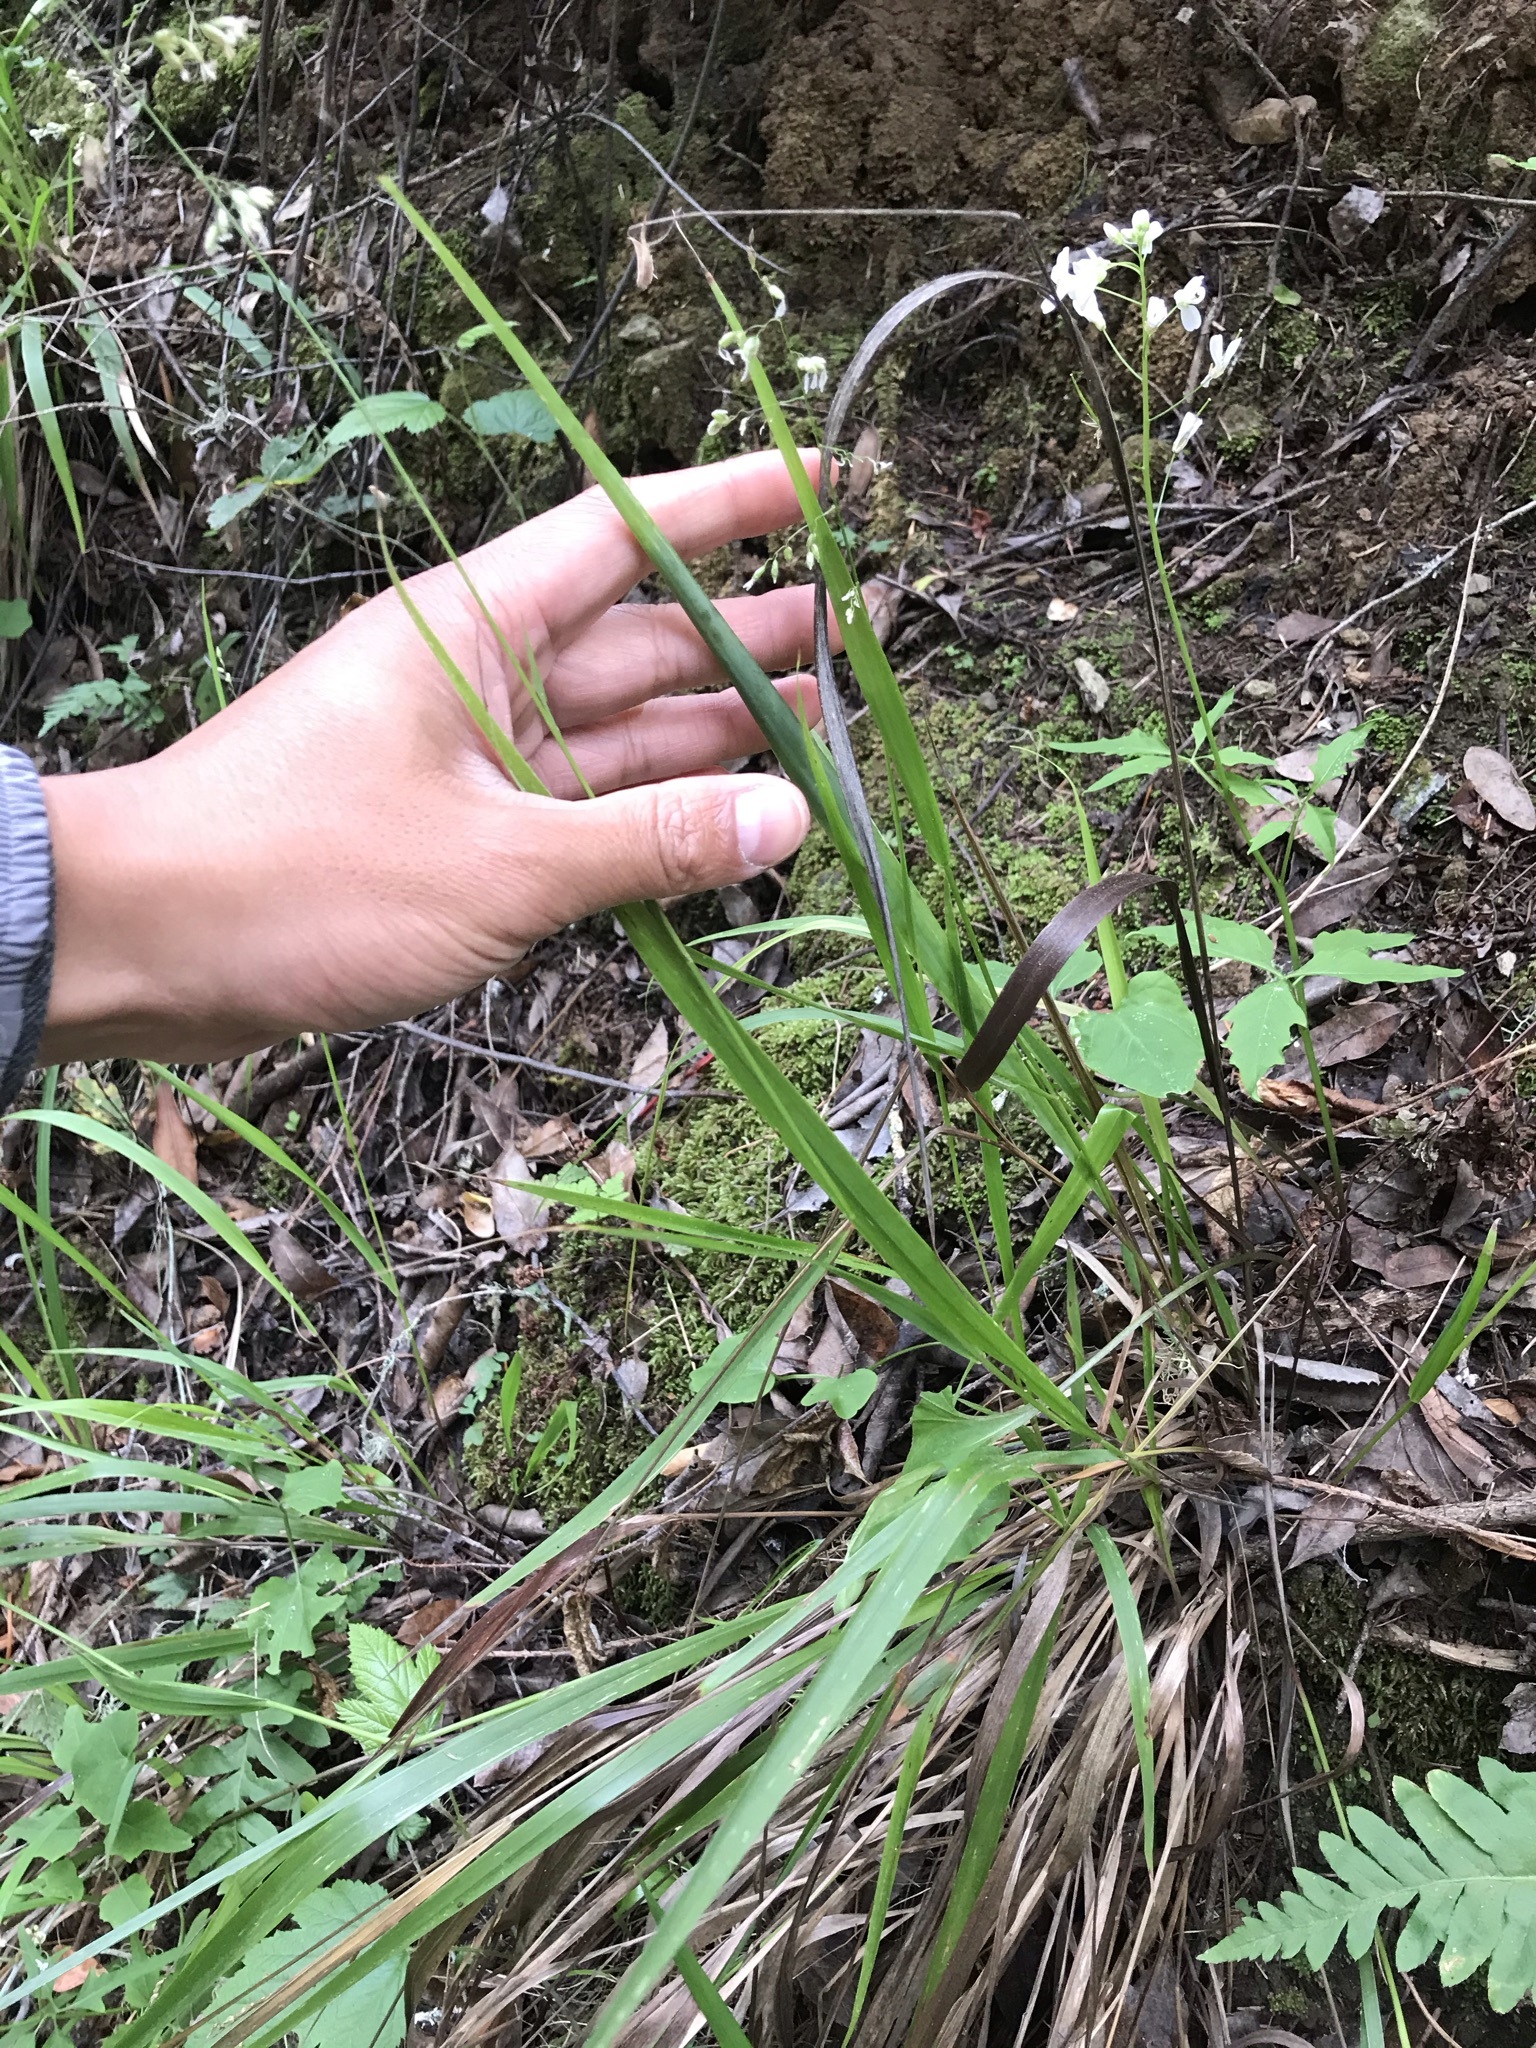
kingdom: Plantae
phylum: Tracheophyta
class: Liliopsida
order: Poales
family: Poaceae
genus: Anthoxanthum
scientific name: Anthoxanthum occidentale
